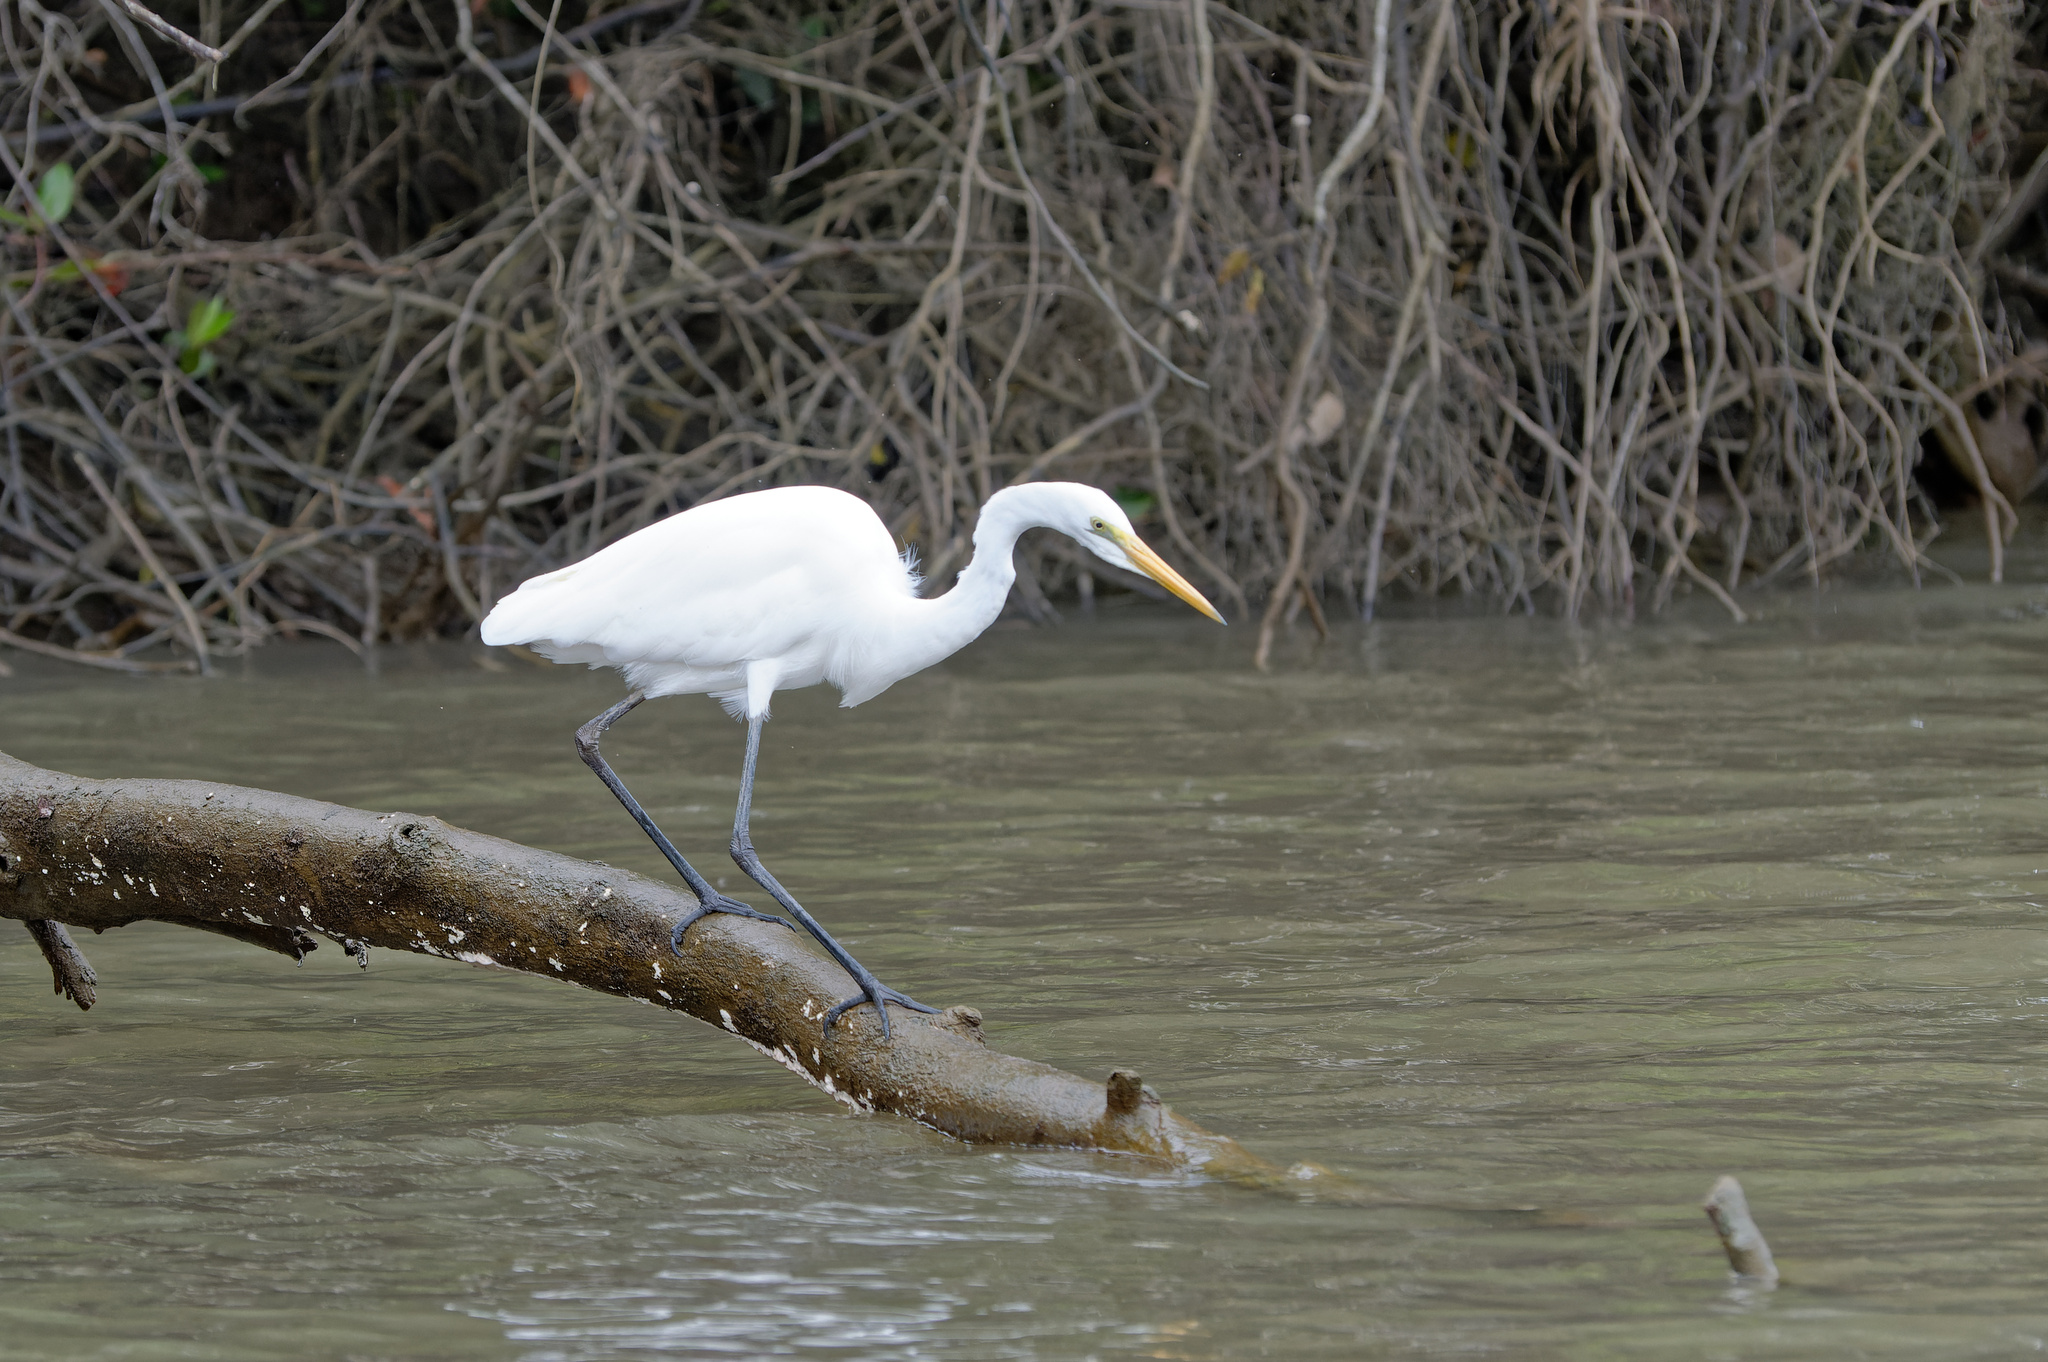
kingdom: Animalia
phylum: Chordata
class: Aves
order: Pelecaniformes
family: Ardeidae
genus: Ardea
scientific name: Ardea alba
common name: Great egret
